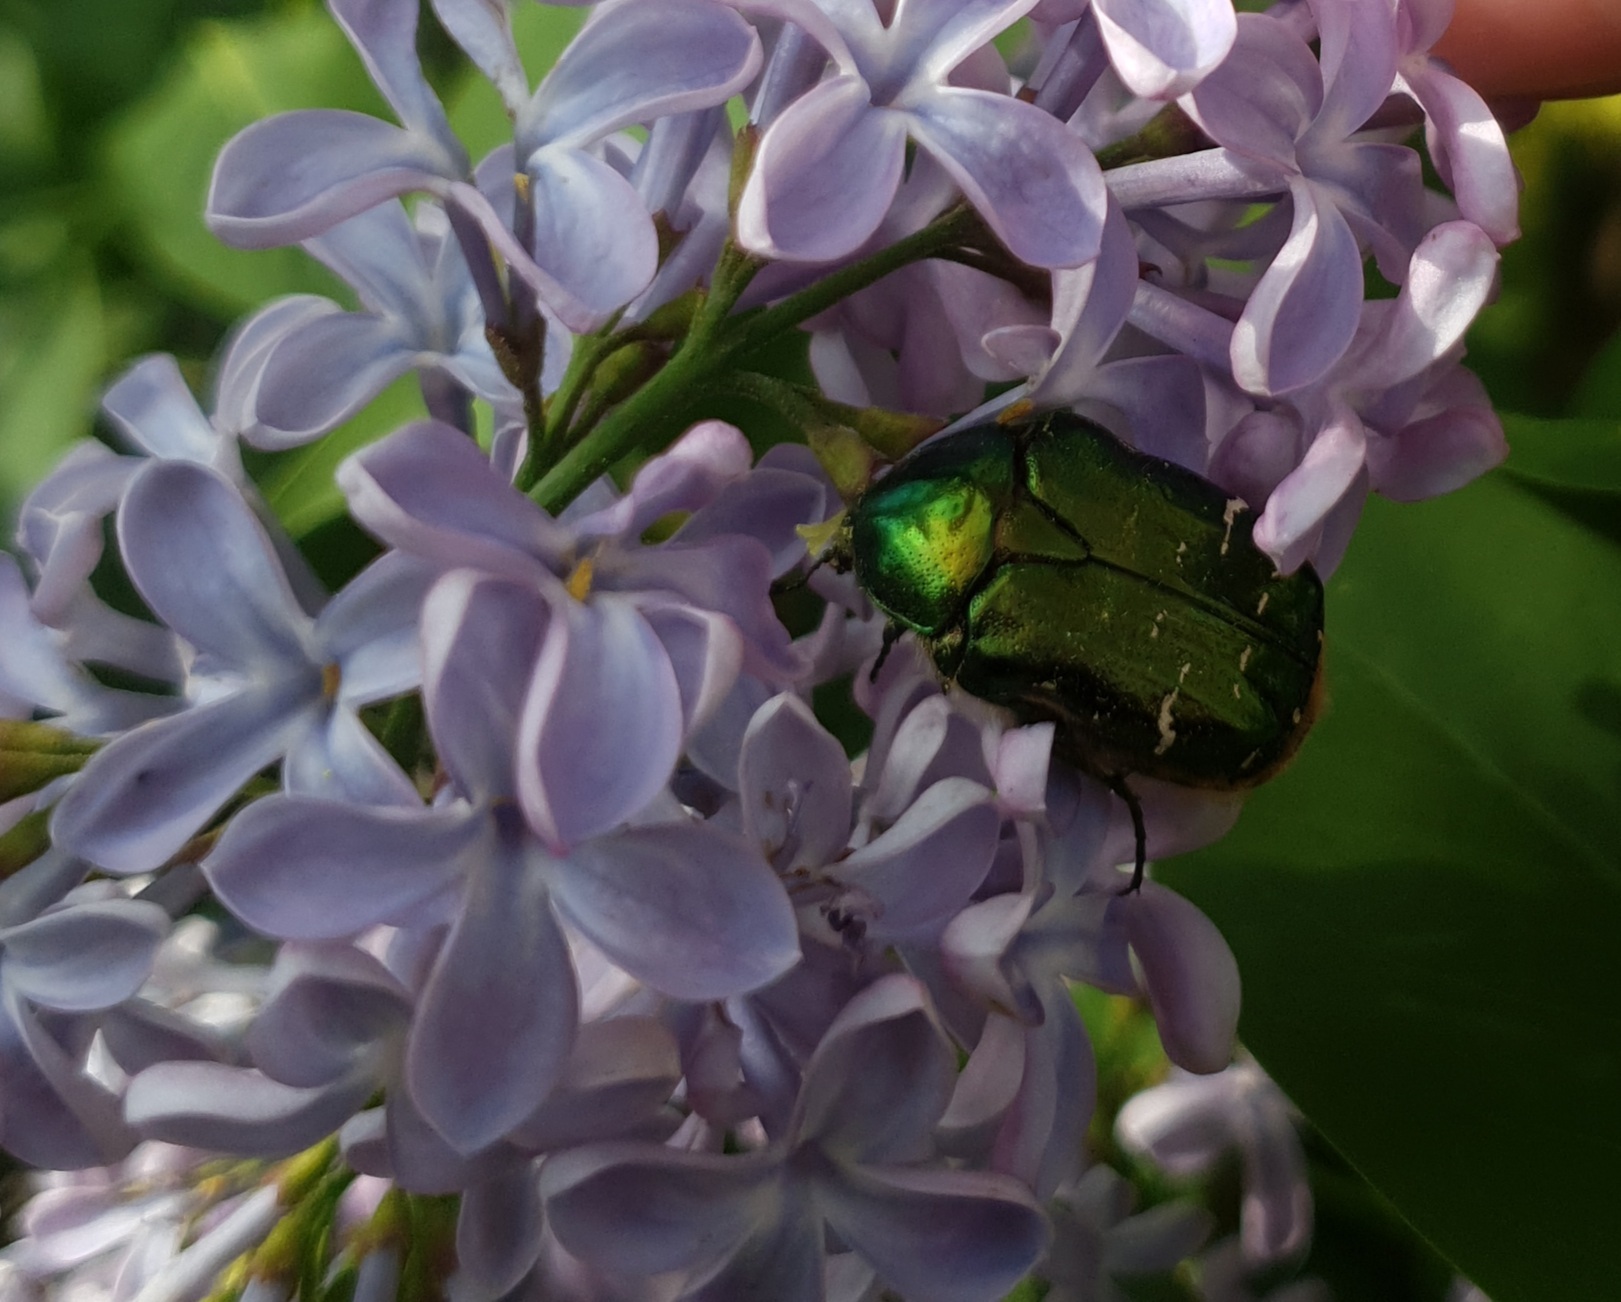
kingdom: Animalia
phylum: Arthropoda
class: Insecta
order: Coleoptera
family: Scarabaeidae
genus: Cetonia
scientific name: Cetonia aurata
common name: Rose chafer
